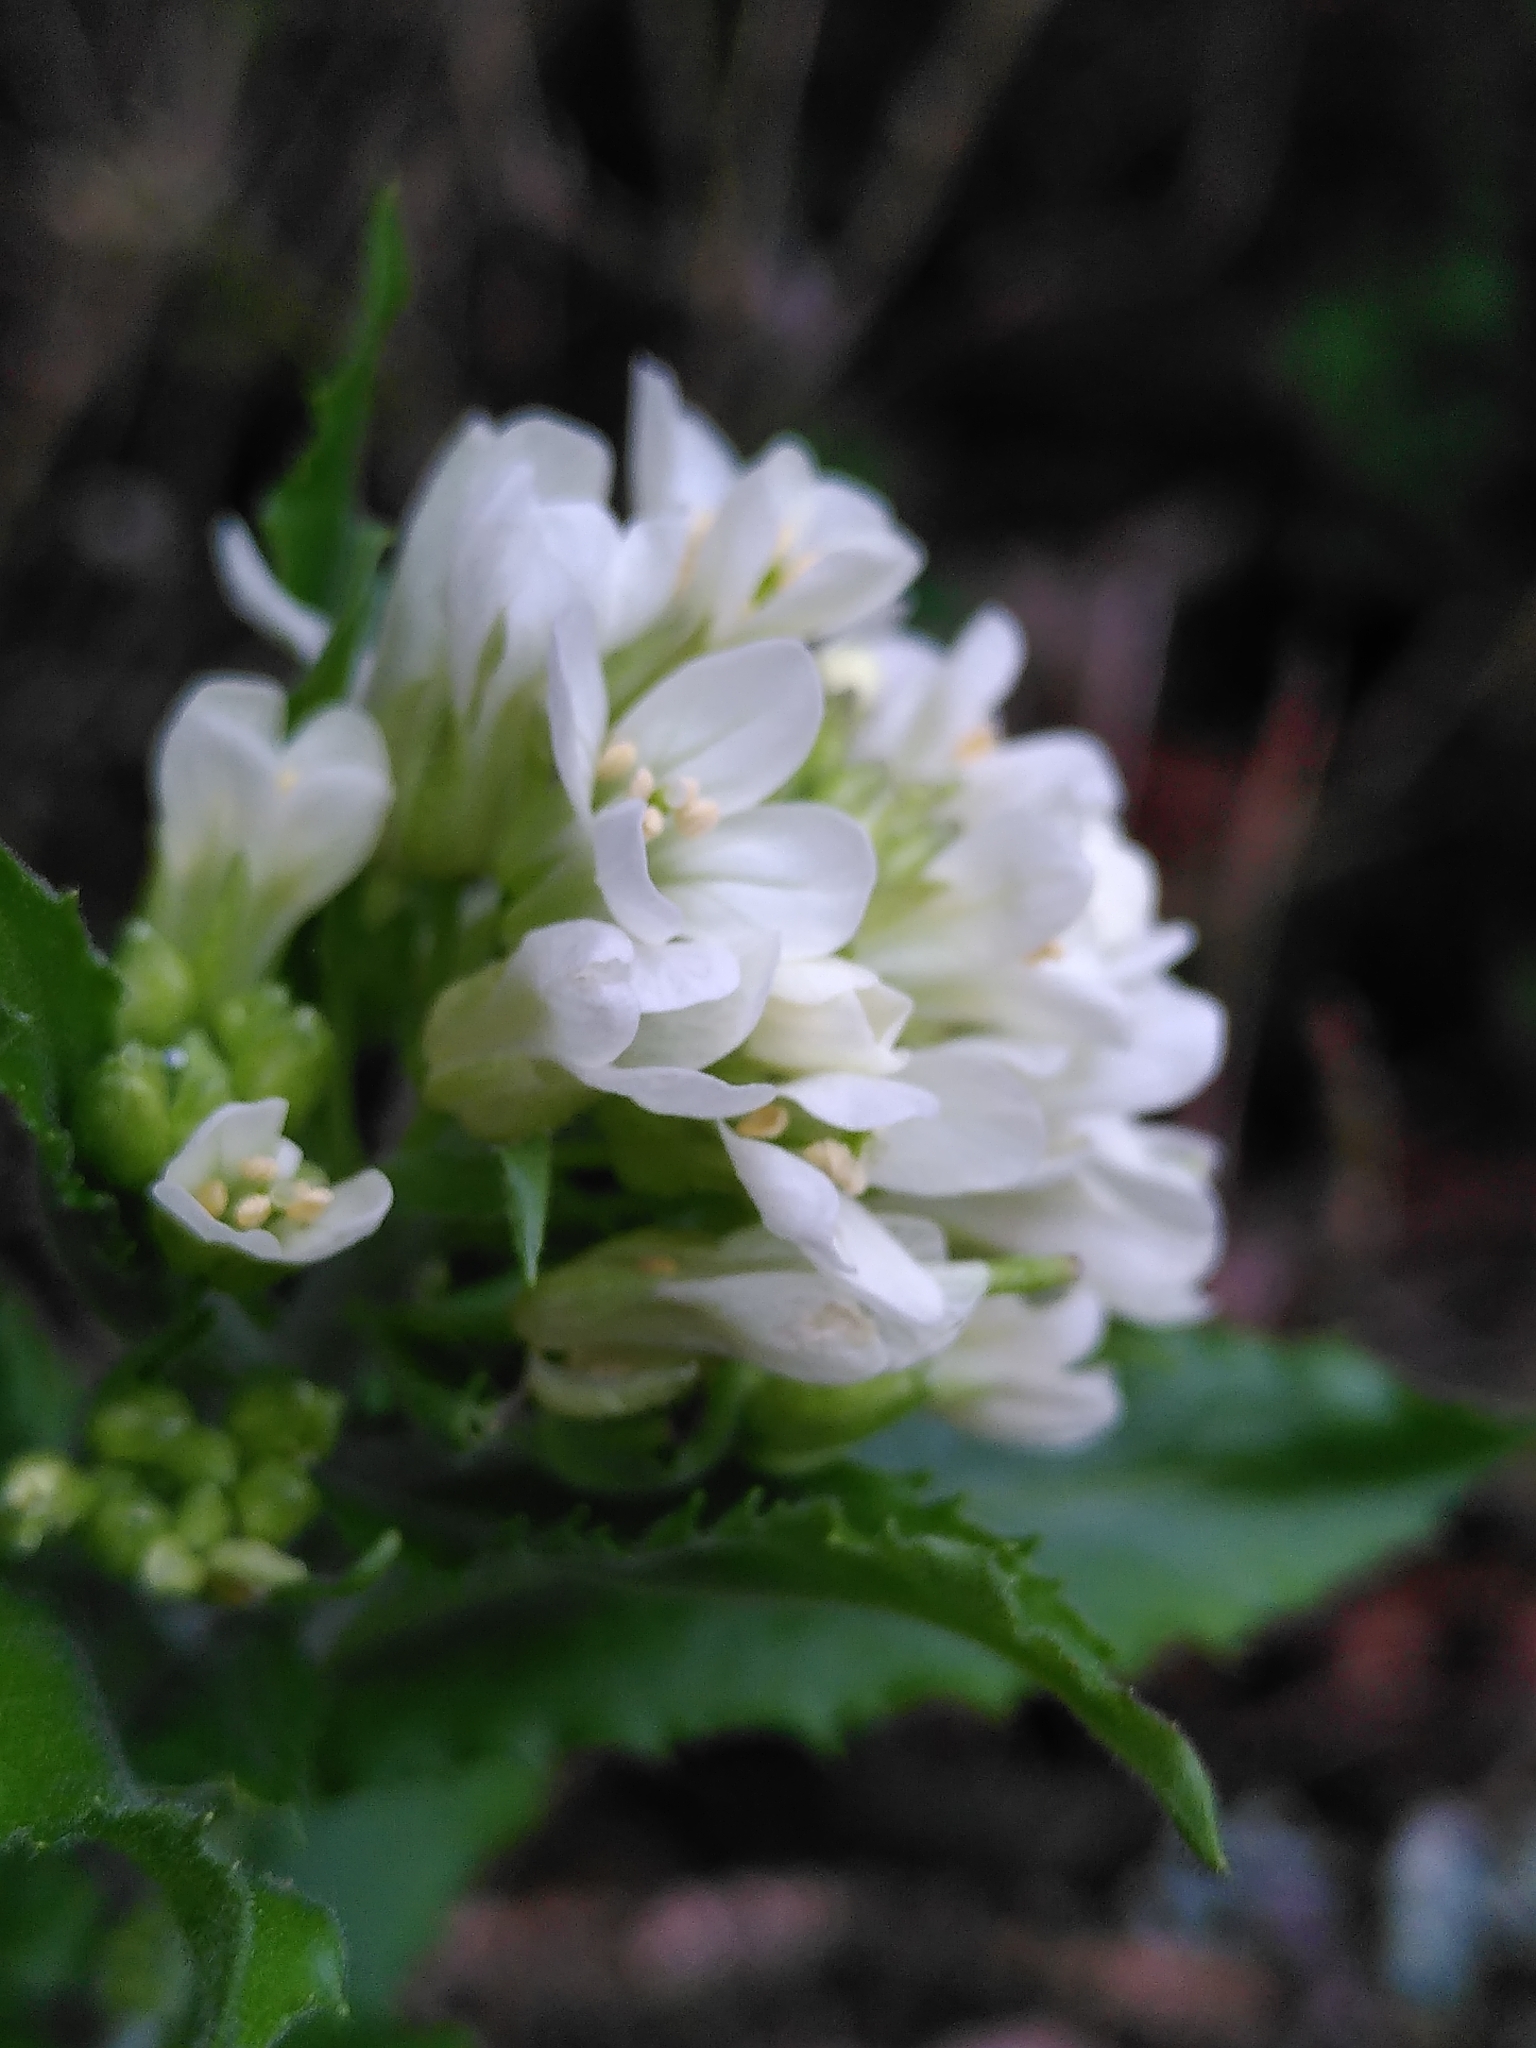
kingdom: Plantae
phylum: Tracheophyta
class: Magnoliopsida
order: Brassicales
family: Brassicaceae
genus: Pseudoturritis
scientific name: Pseudoturritis turrita
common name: Tower cress
